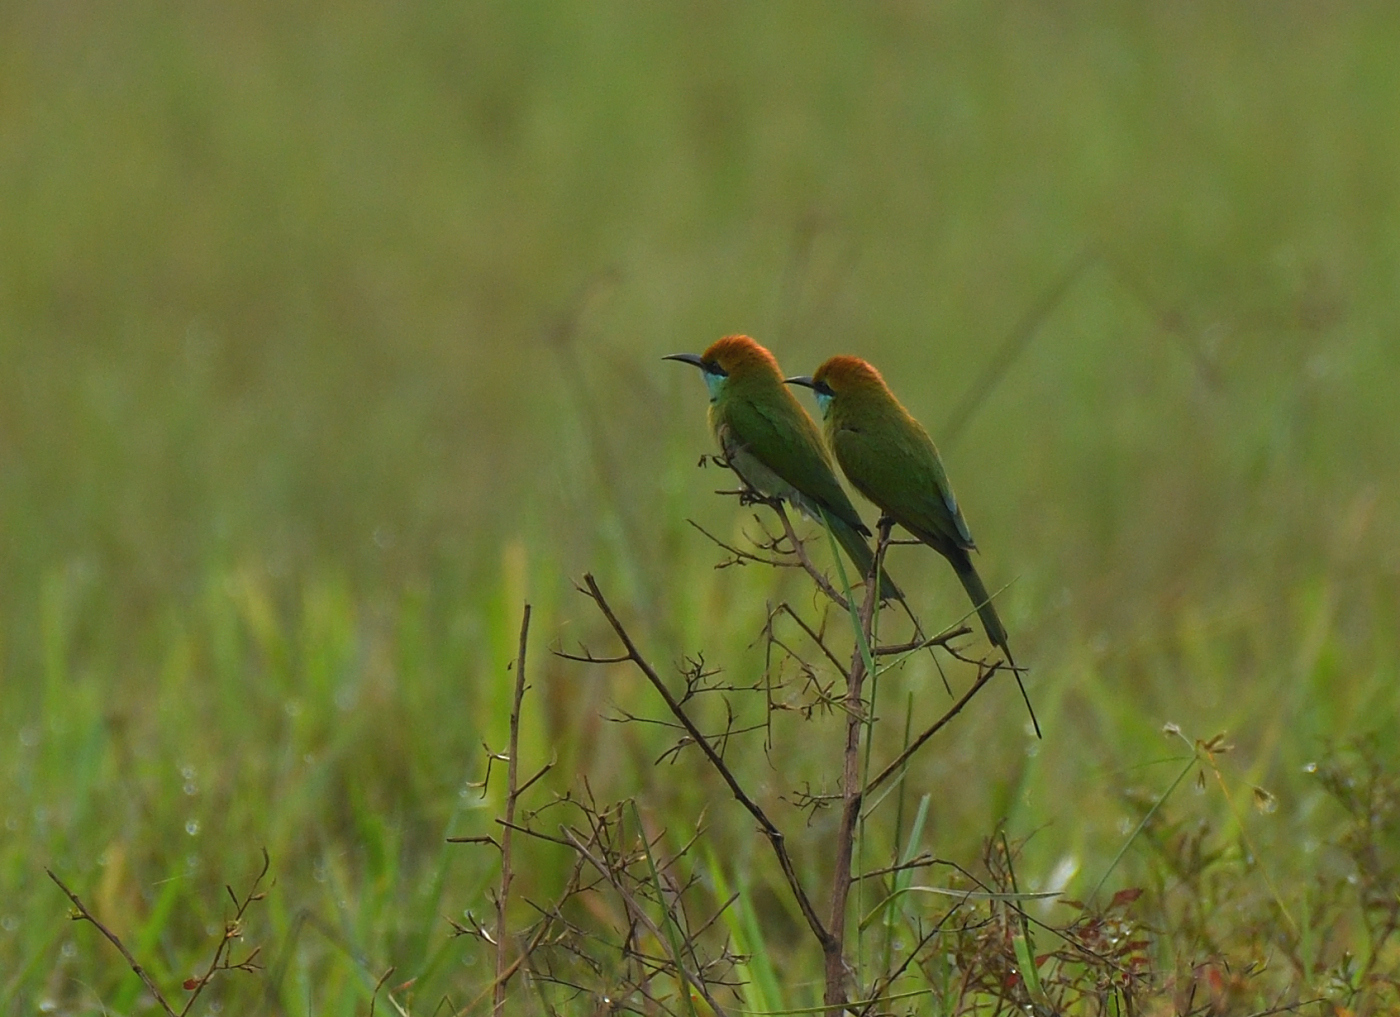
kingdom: Animalia
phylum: Chordata
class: Aves
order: Coraciiformes
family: Meropidae
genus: Merops
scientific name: Merops orientalis
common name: Green bee-eater
